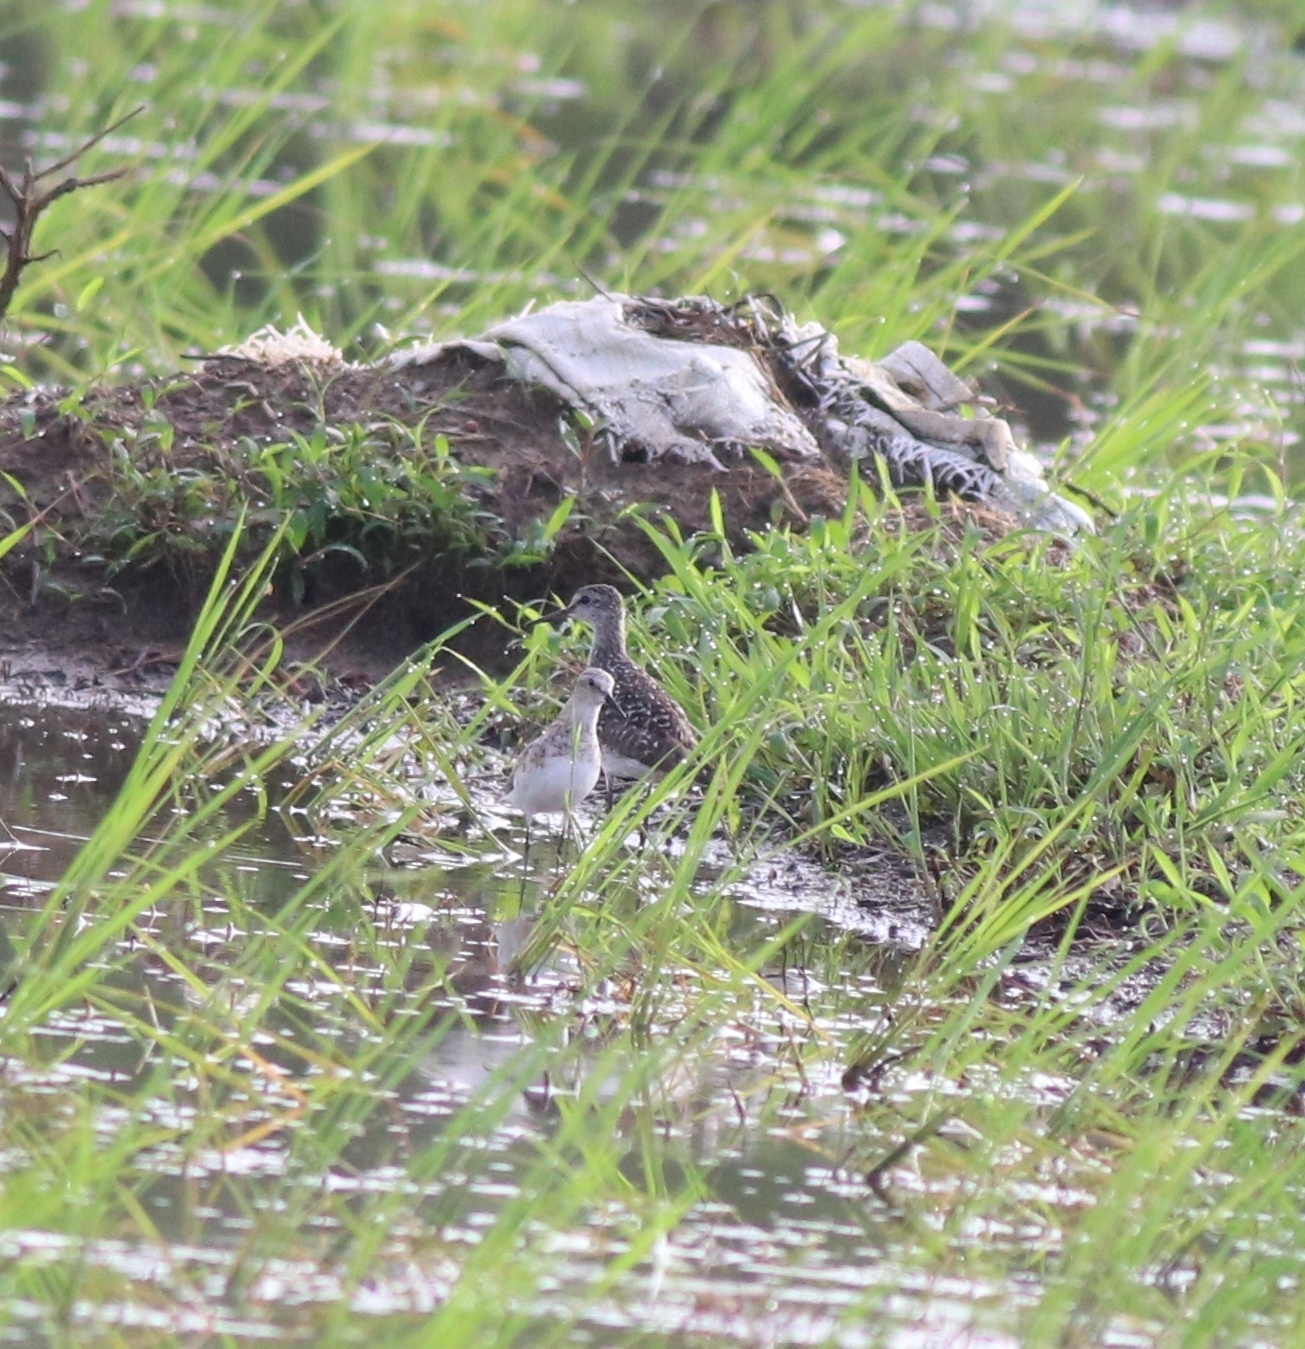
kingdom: Animalia
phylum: Chordata
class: Aves
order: Charadriiformes
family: Scolopacidae
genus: Calidris
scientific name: Calidris minuta
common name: Little stint
